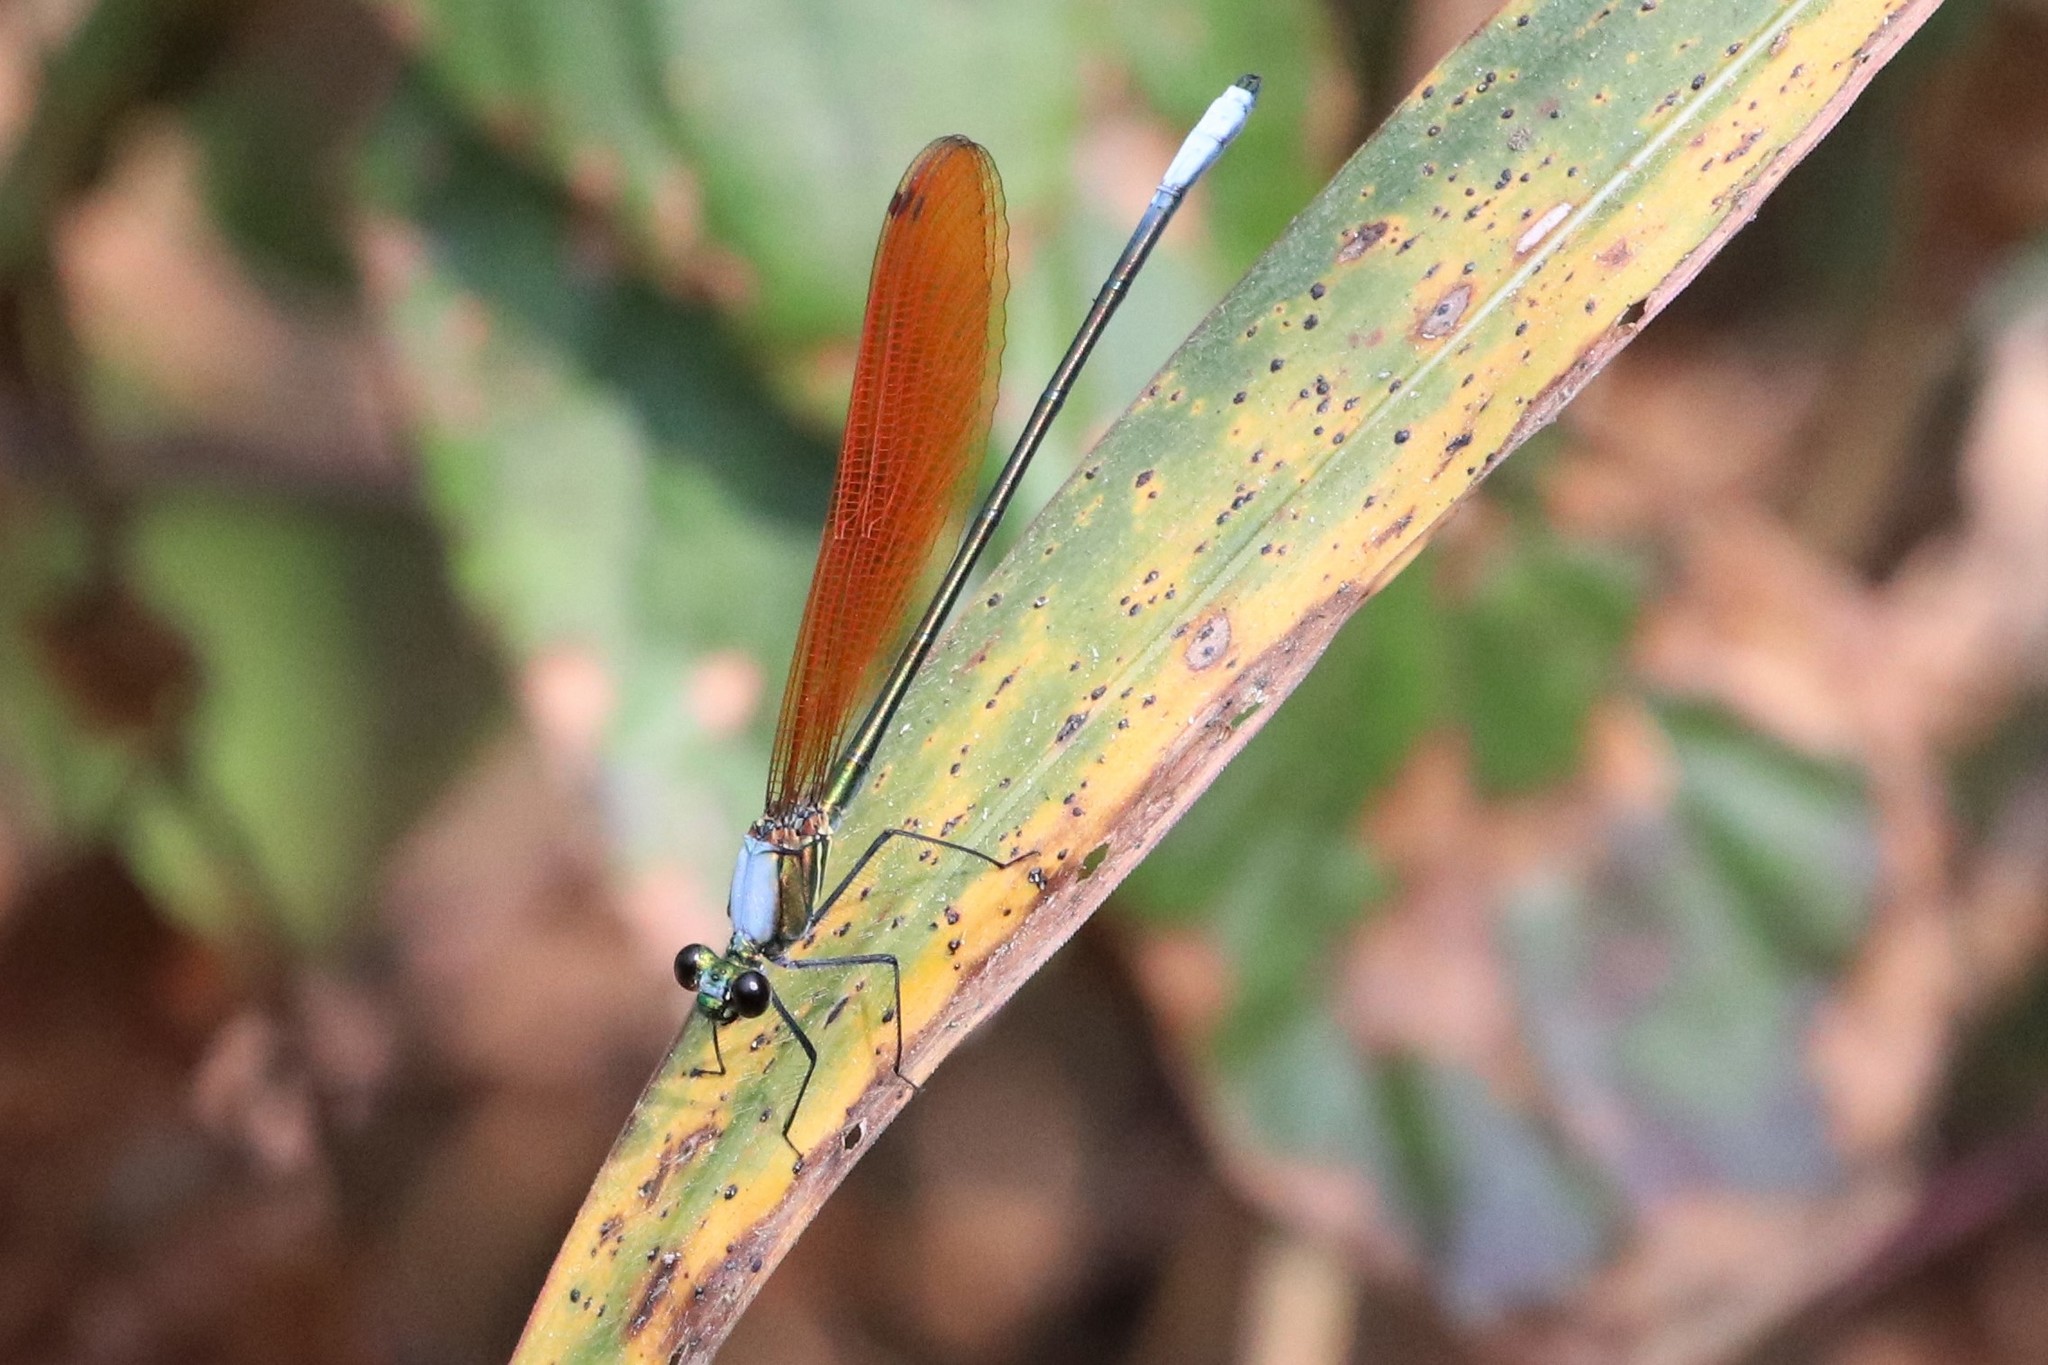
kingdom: Animalia
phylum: Arthropoda
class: Insecta
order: Odonata
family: Calopterygidae
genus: Mnais
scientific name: Mnais andersoni
